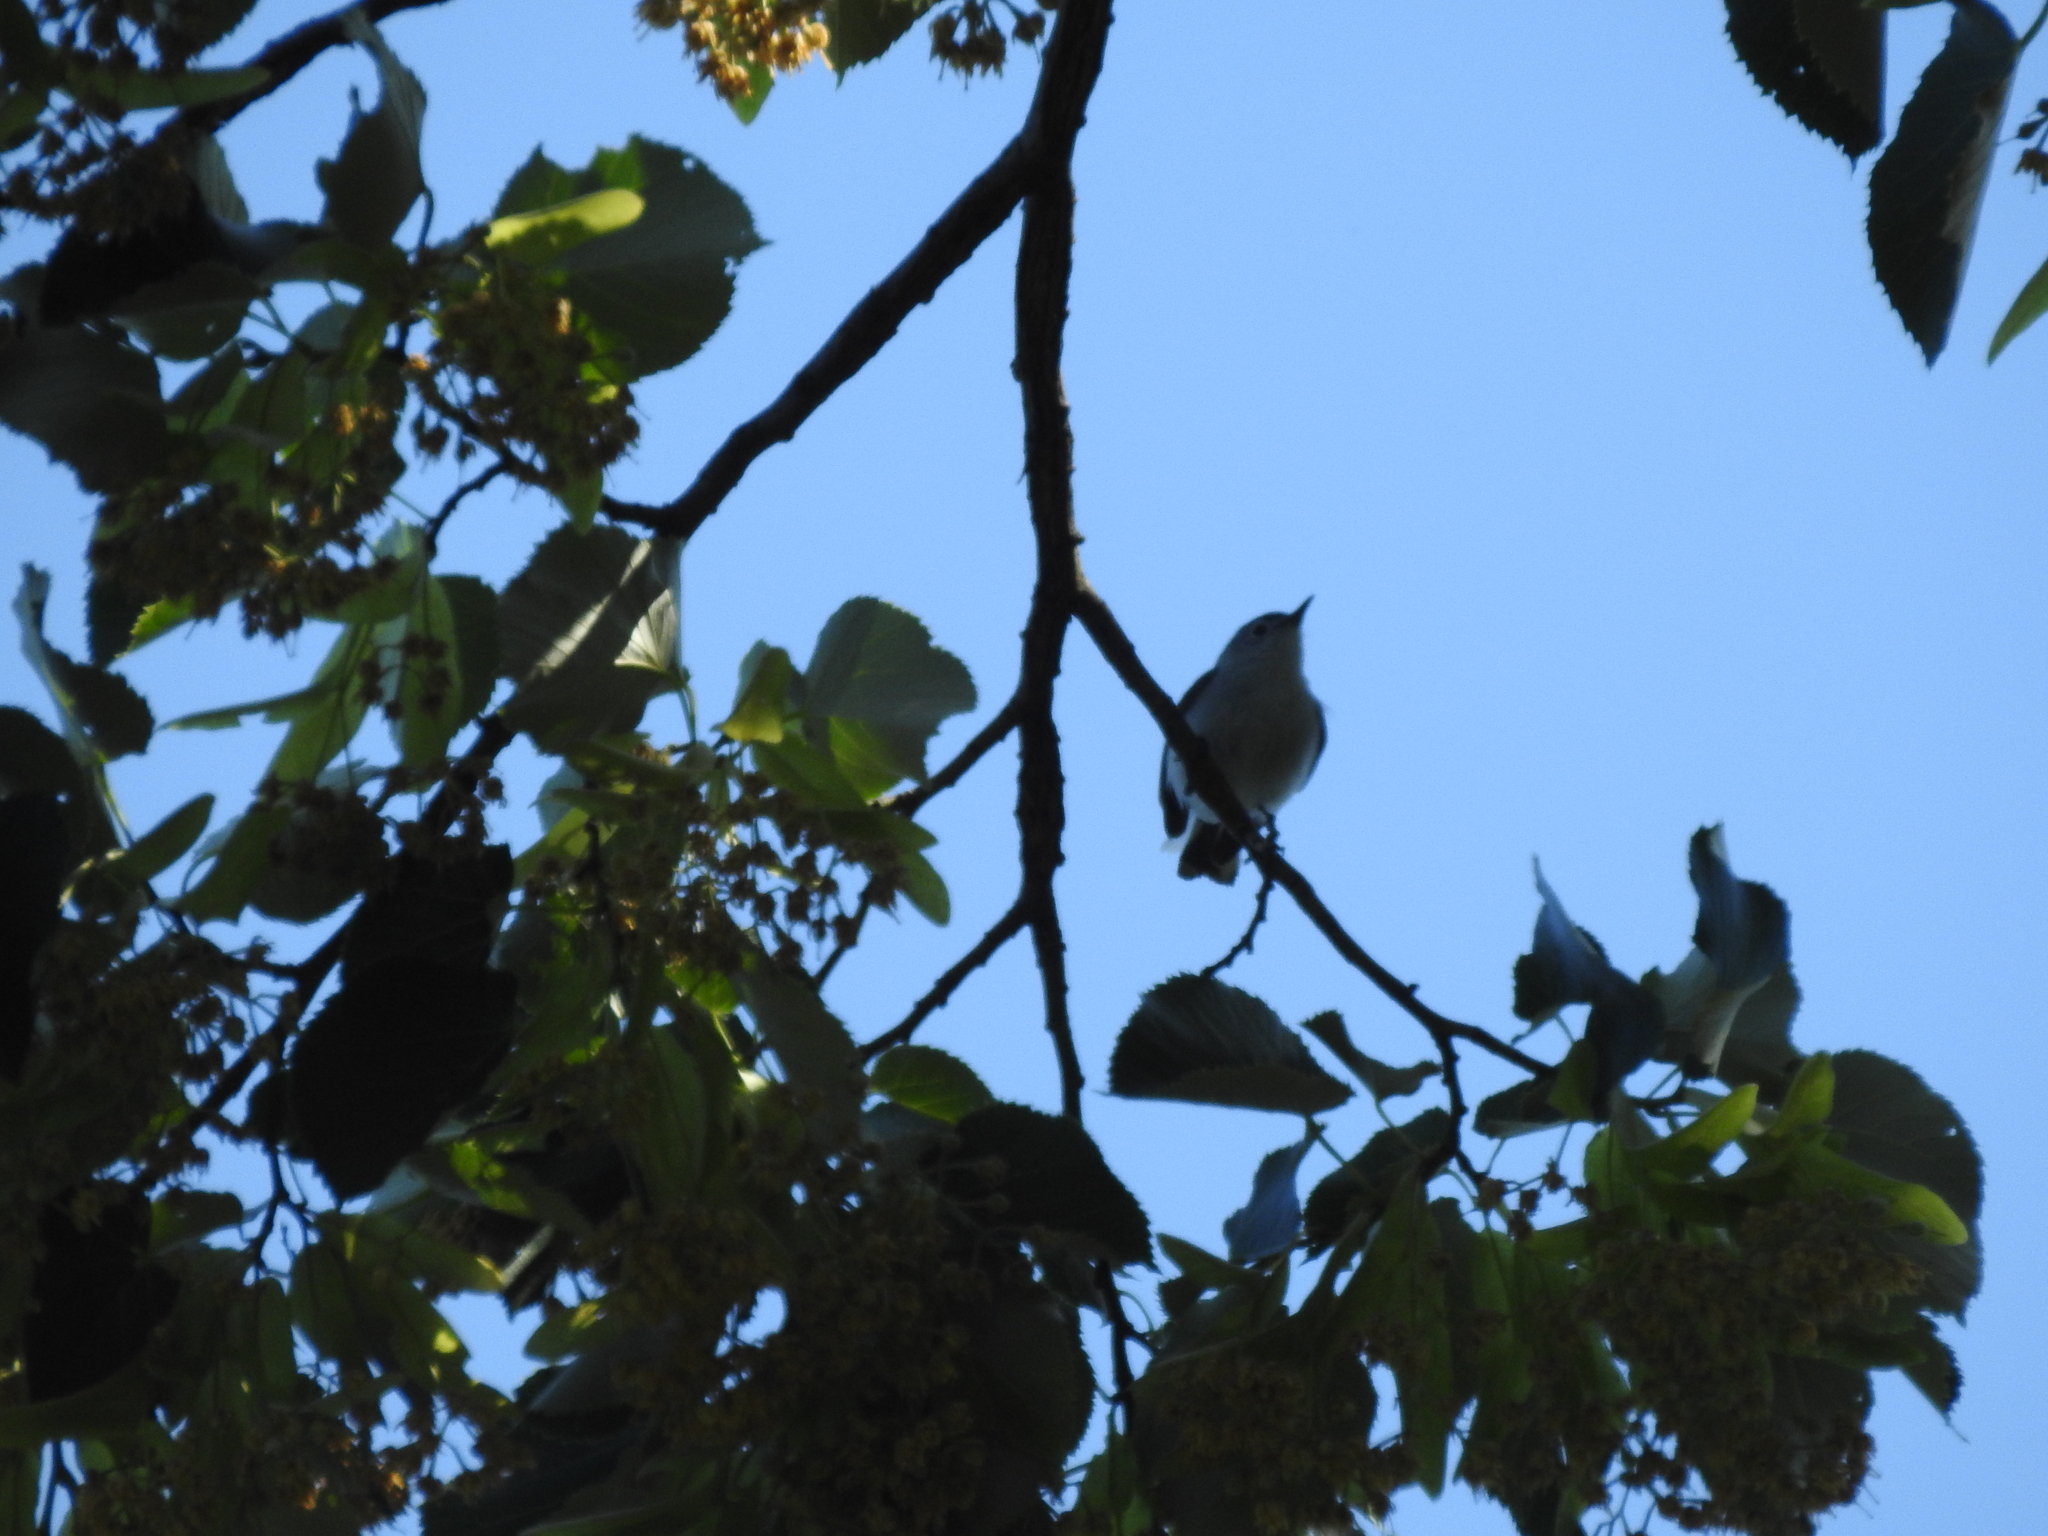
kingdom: Animalia
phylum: Chordata
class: Aves
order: Passeriformes
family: Polioptilidae
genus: Polioptila
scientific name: Polioptila caerulea
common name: Blue-gray gnatcatcher
